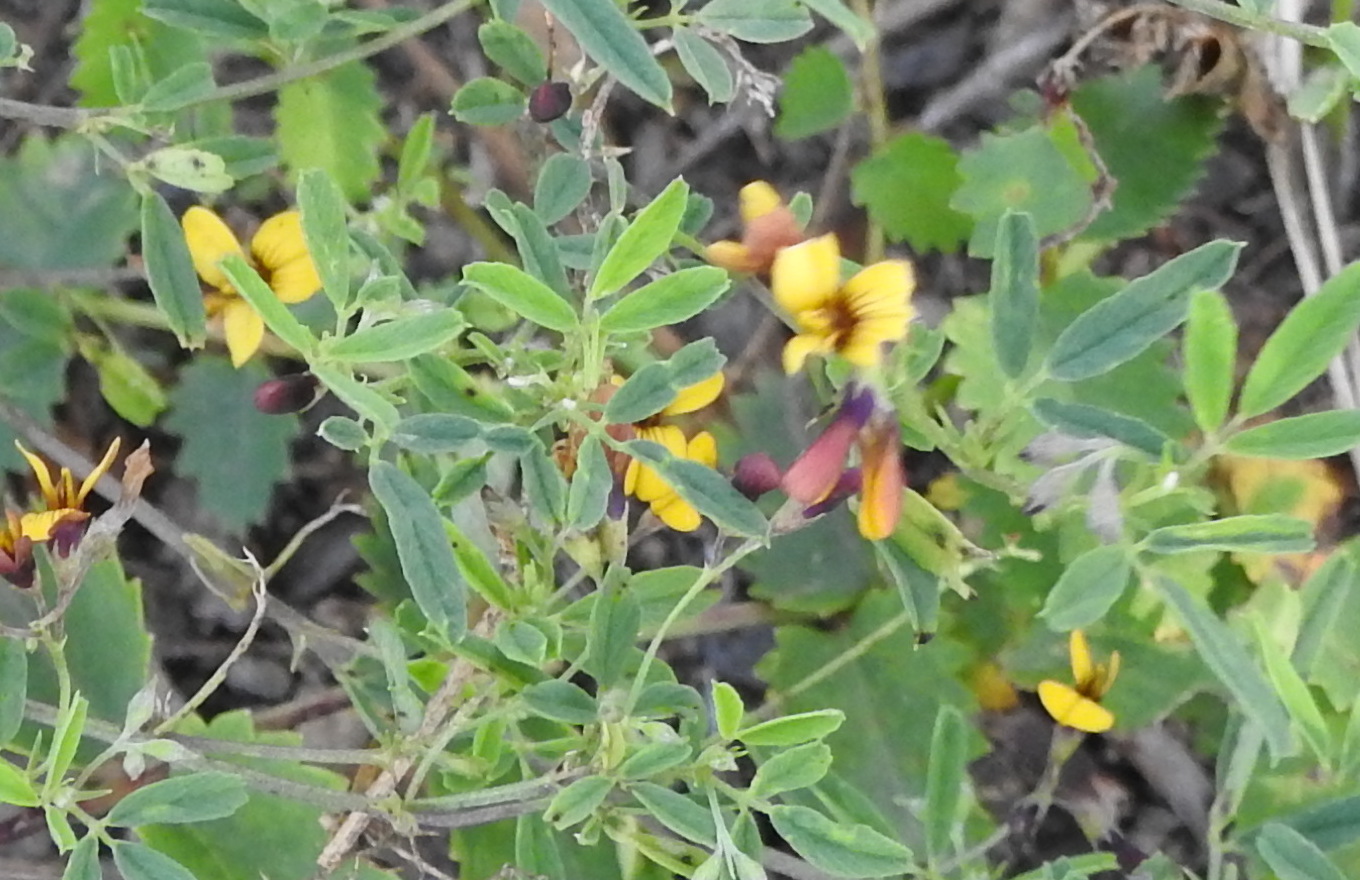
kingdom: Plantae
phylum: Tracheophyta
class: Magnoliopsida
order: Fabales
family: Fabaceae
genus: Medicago
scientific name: Medicago ruthenica
